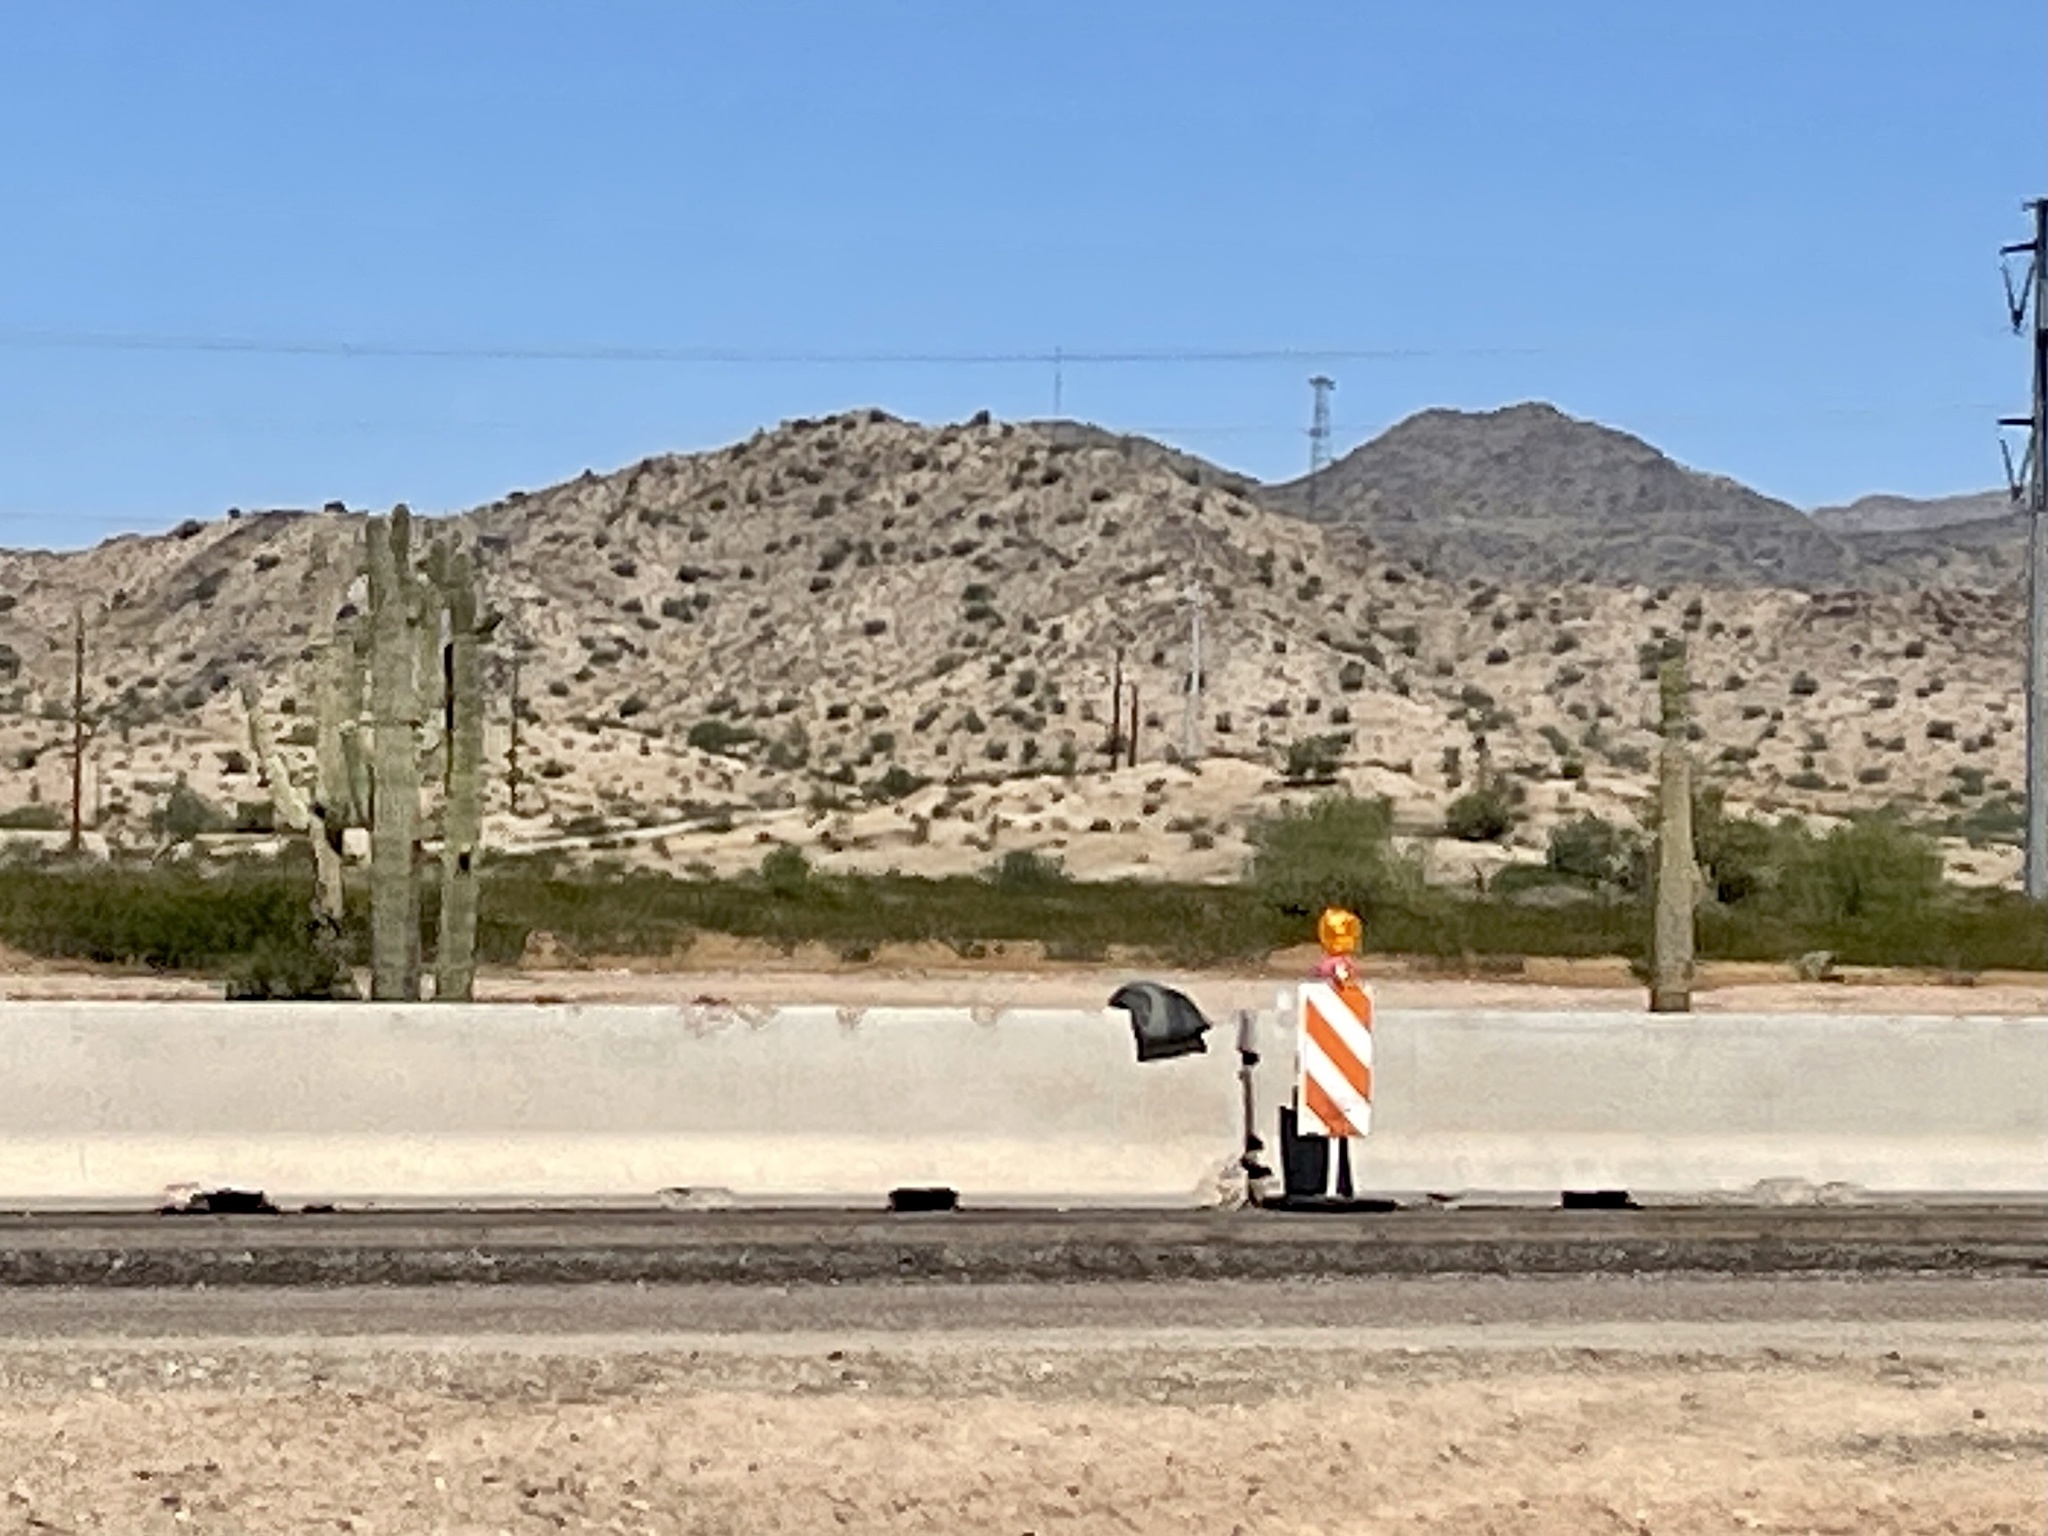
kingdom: Plantae
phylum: Tracheophyta
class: Magnoliopsida
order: Caryophyllales
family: Cactaceae
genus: Carnegiea
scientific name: Carnegiea gigantea
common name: Saguaro
